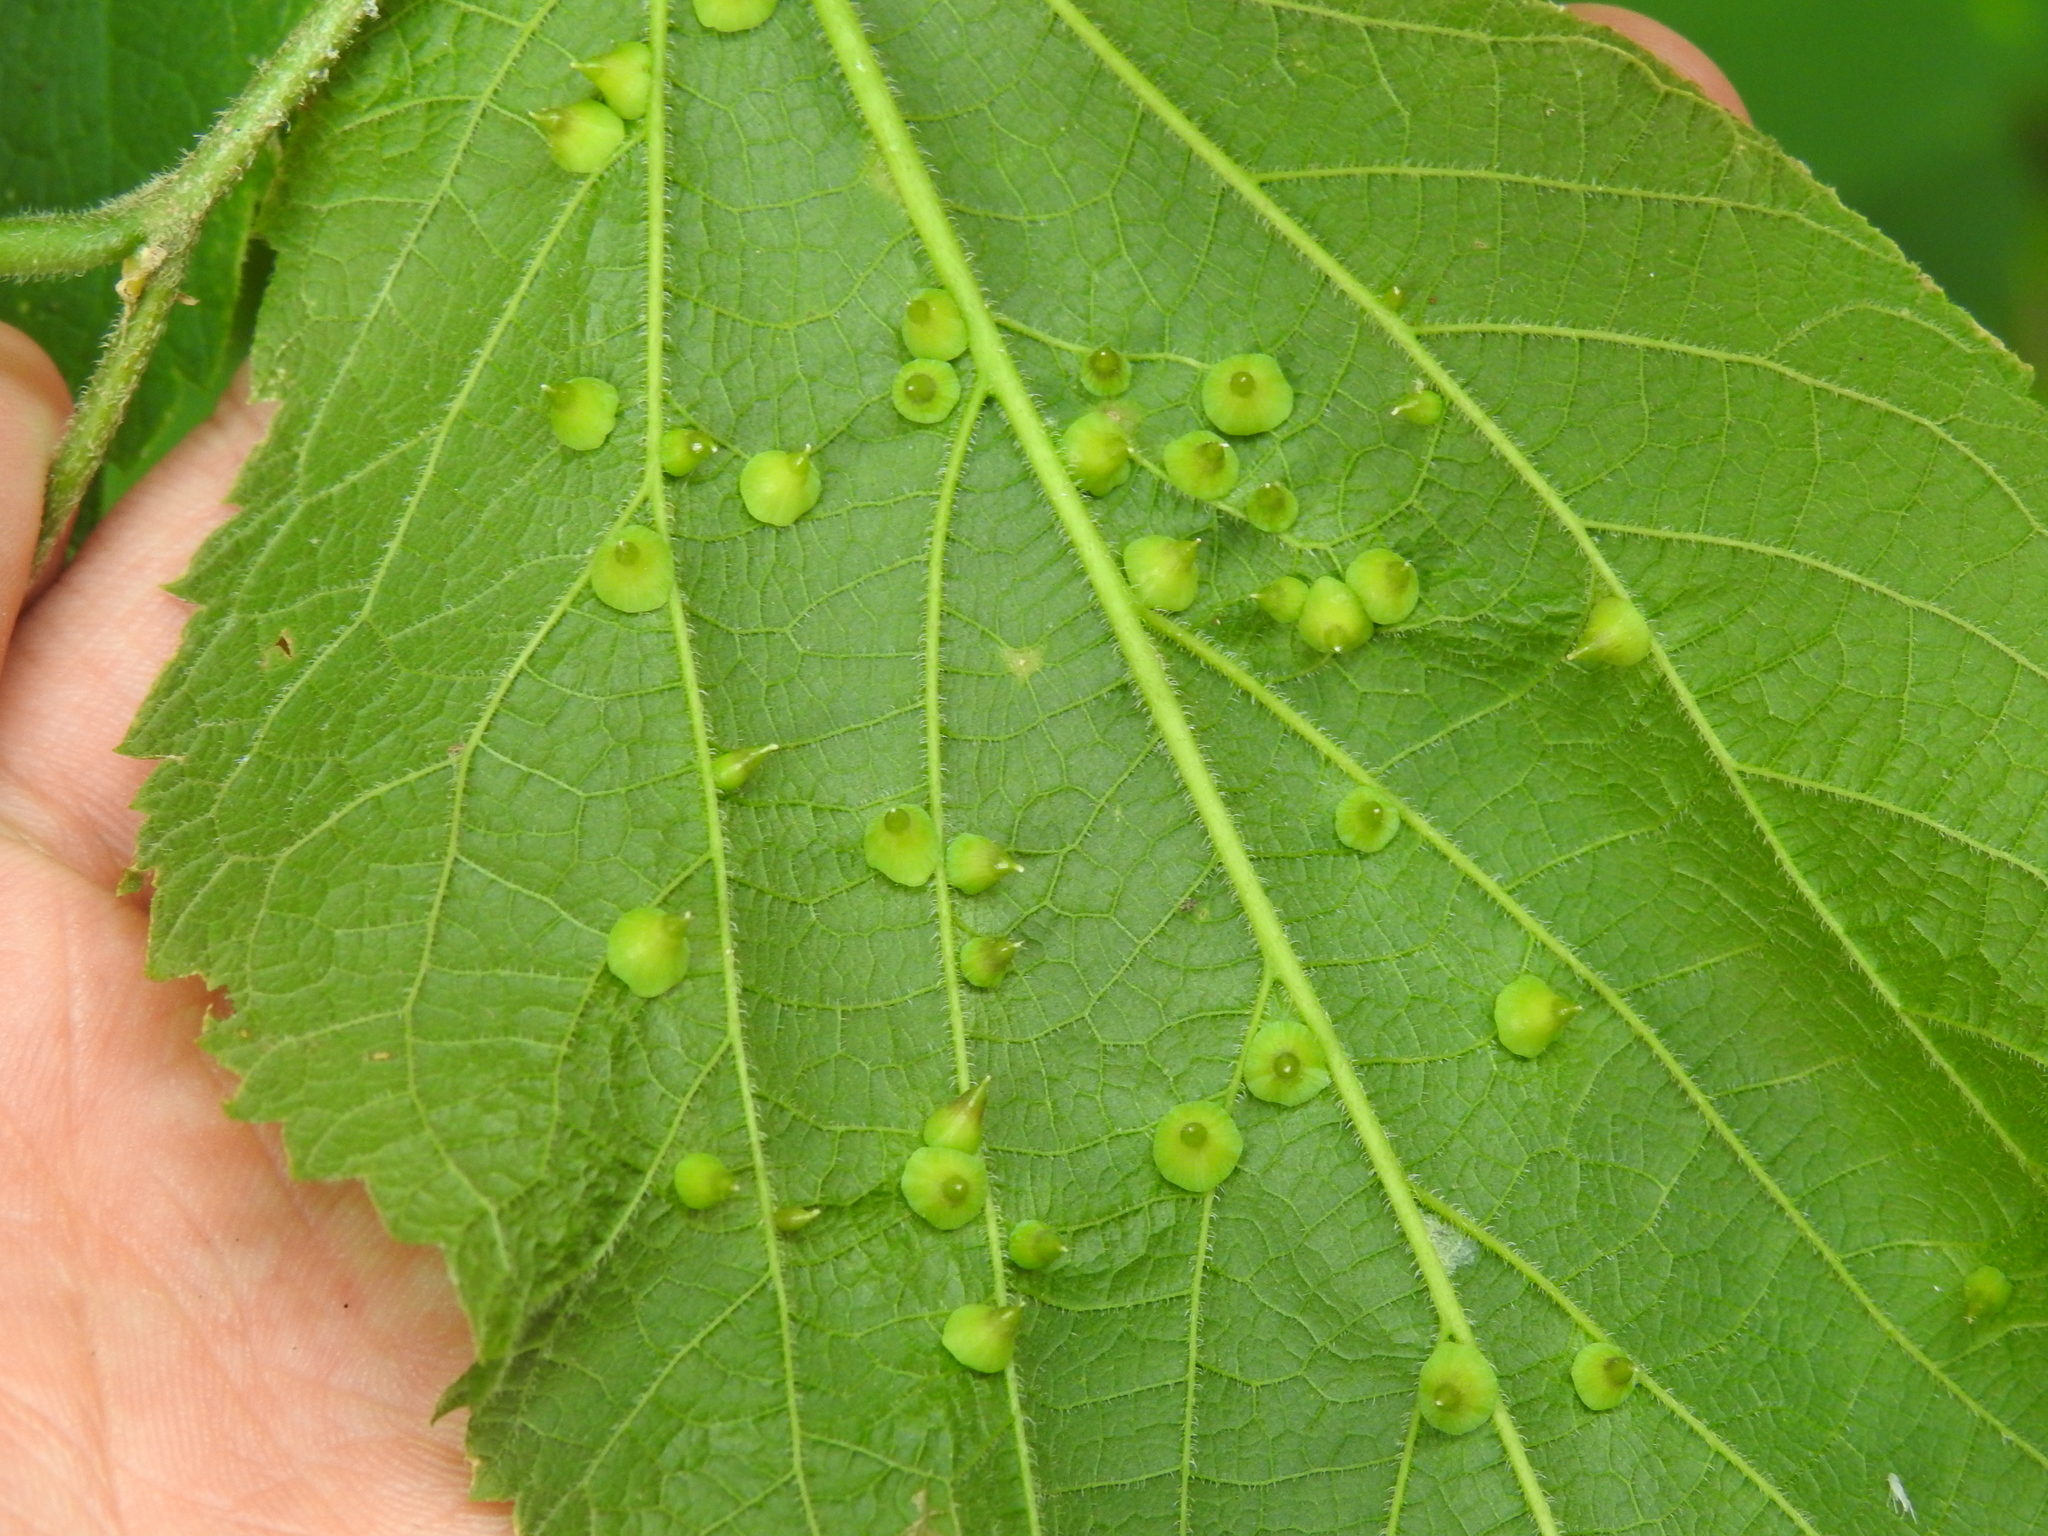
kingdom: Animalia
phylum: Arthropoda
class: Insecta
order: Diptera
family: Cecidomyiidae
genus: Celticecis
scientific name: Celticecis spiniformis
